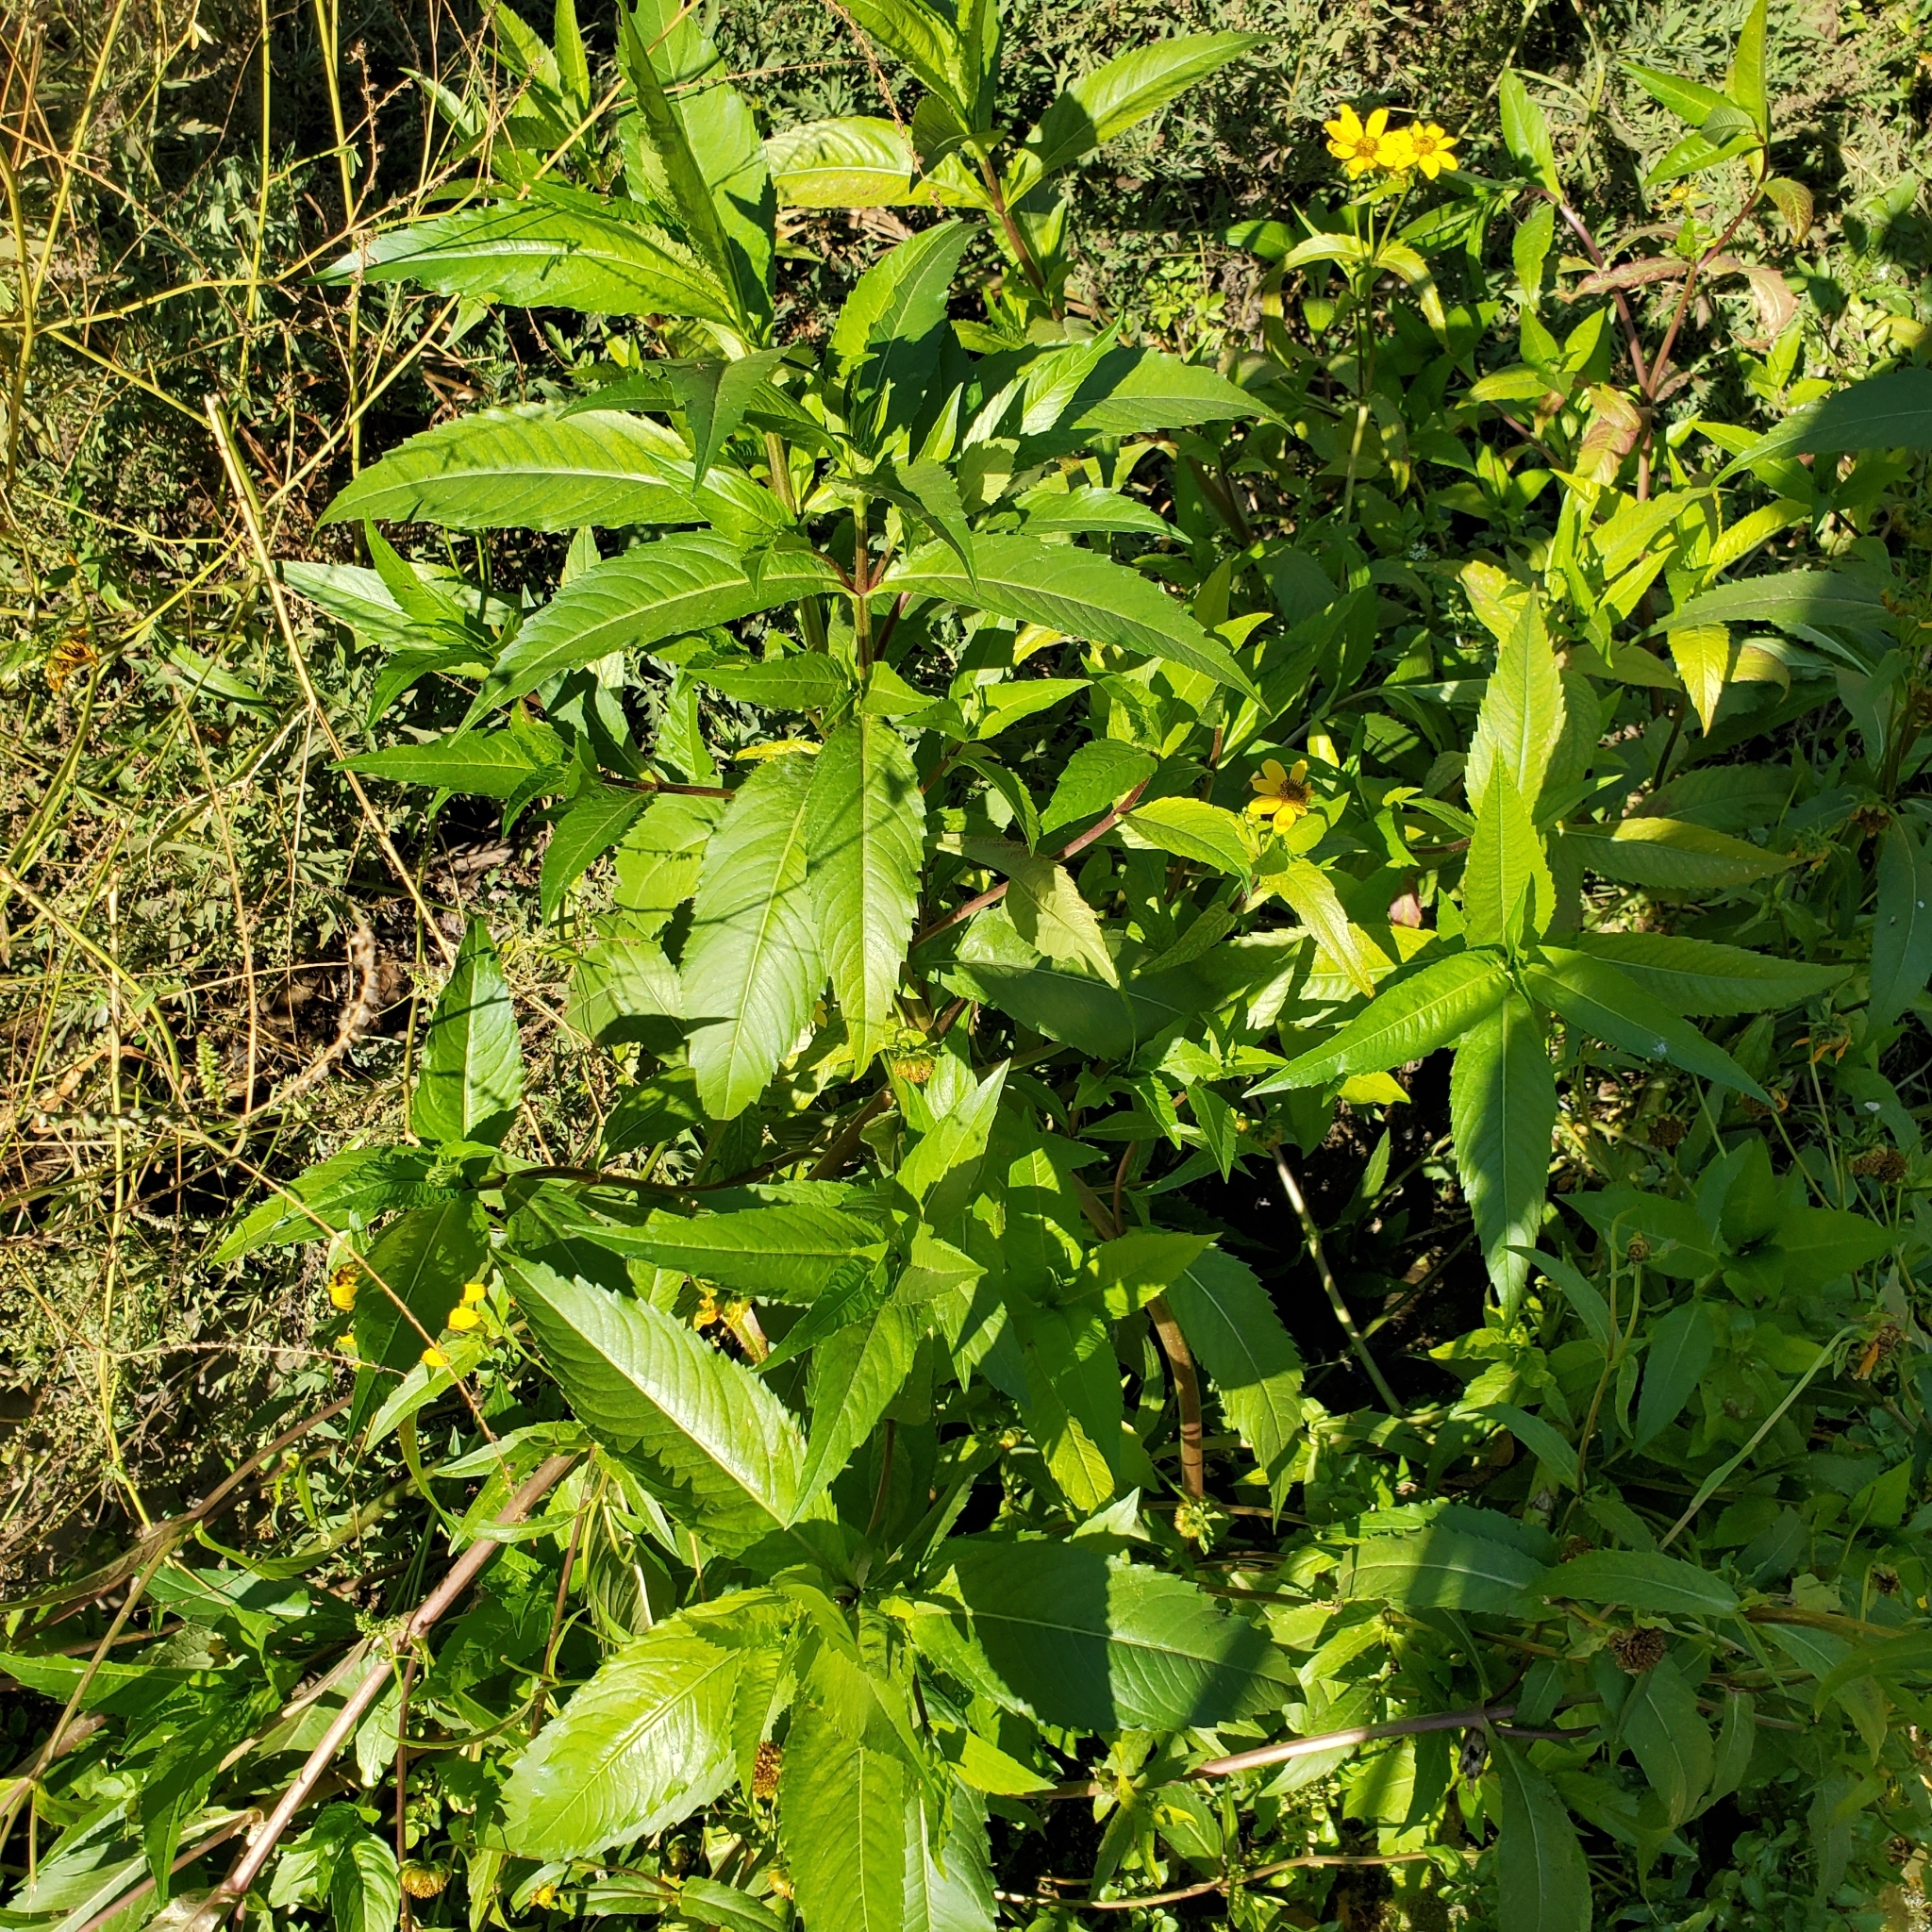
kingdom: Plantae
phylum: Tracheophyta
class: Magnoliopsida
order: Asterales
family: Asteraceae
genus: Bidens
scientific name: Bidens laevis
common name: Larger bur-marigold
